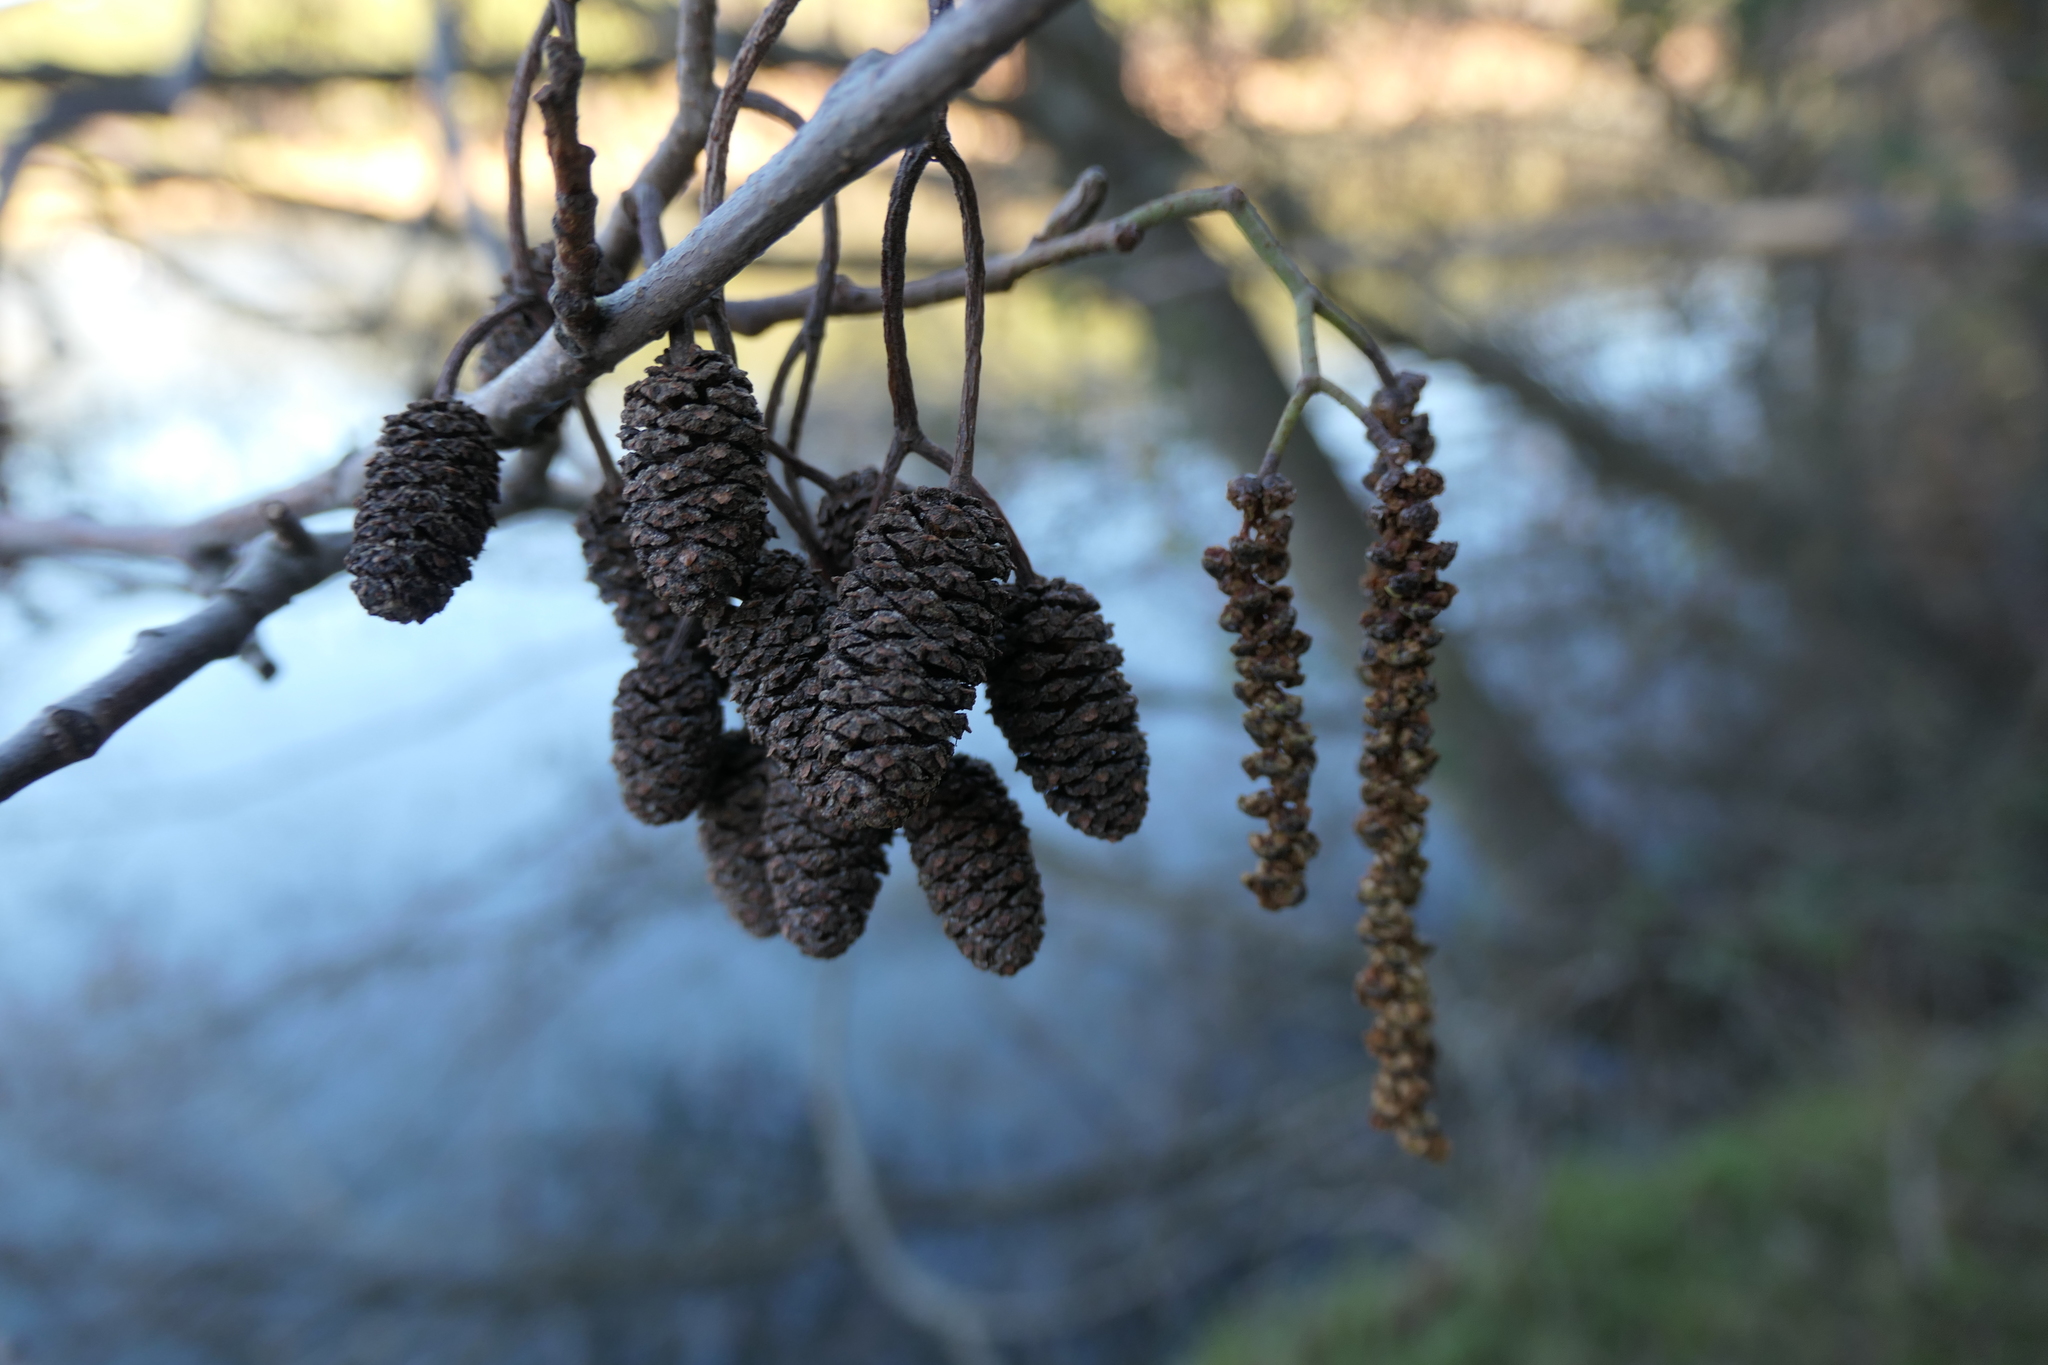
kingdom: Plantae
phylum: Tracheophyta
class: Magnoliopsida
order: Fagales
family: Betulaceae
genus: Alnus
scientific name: Alnus lusitanica
